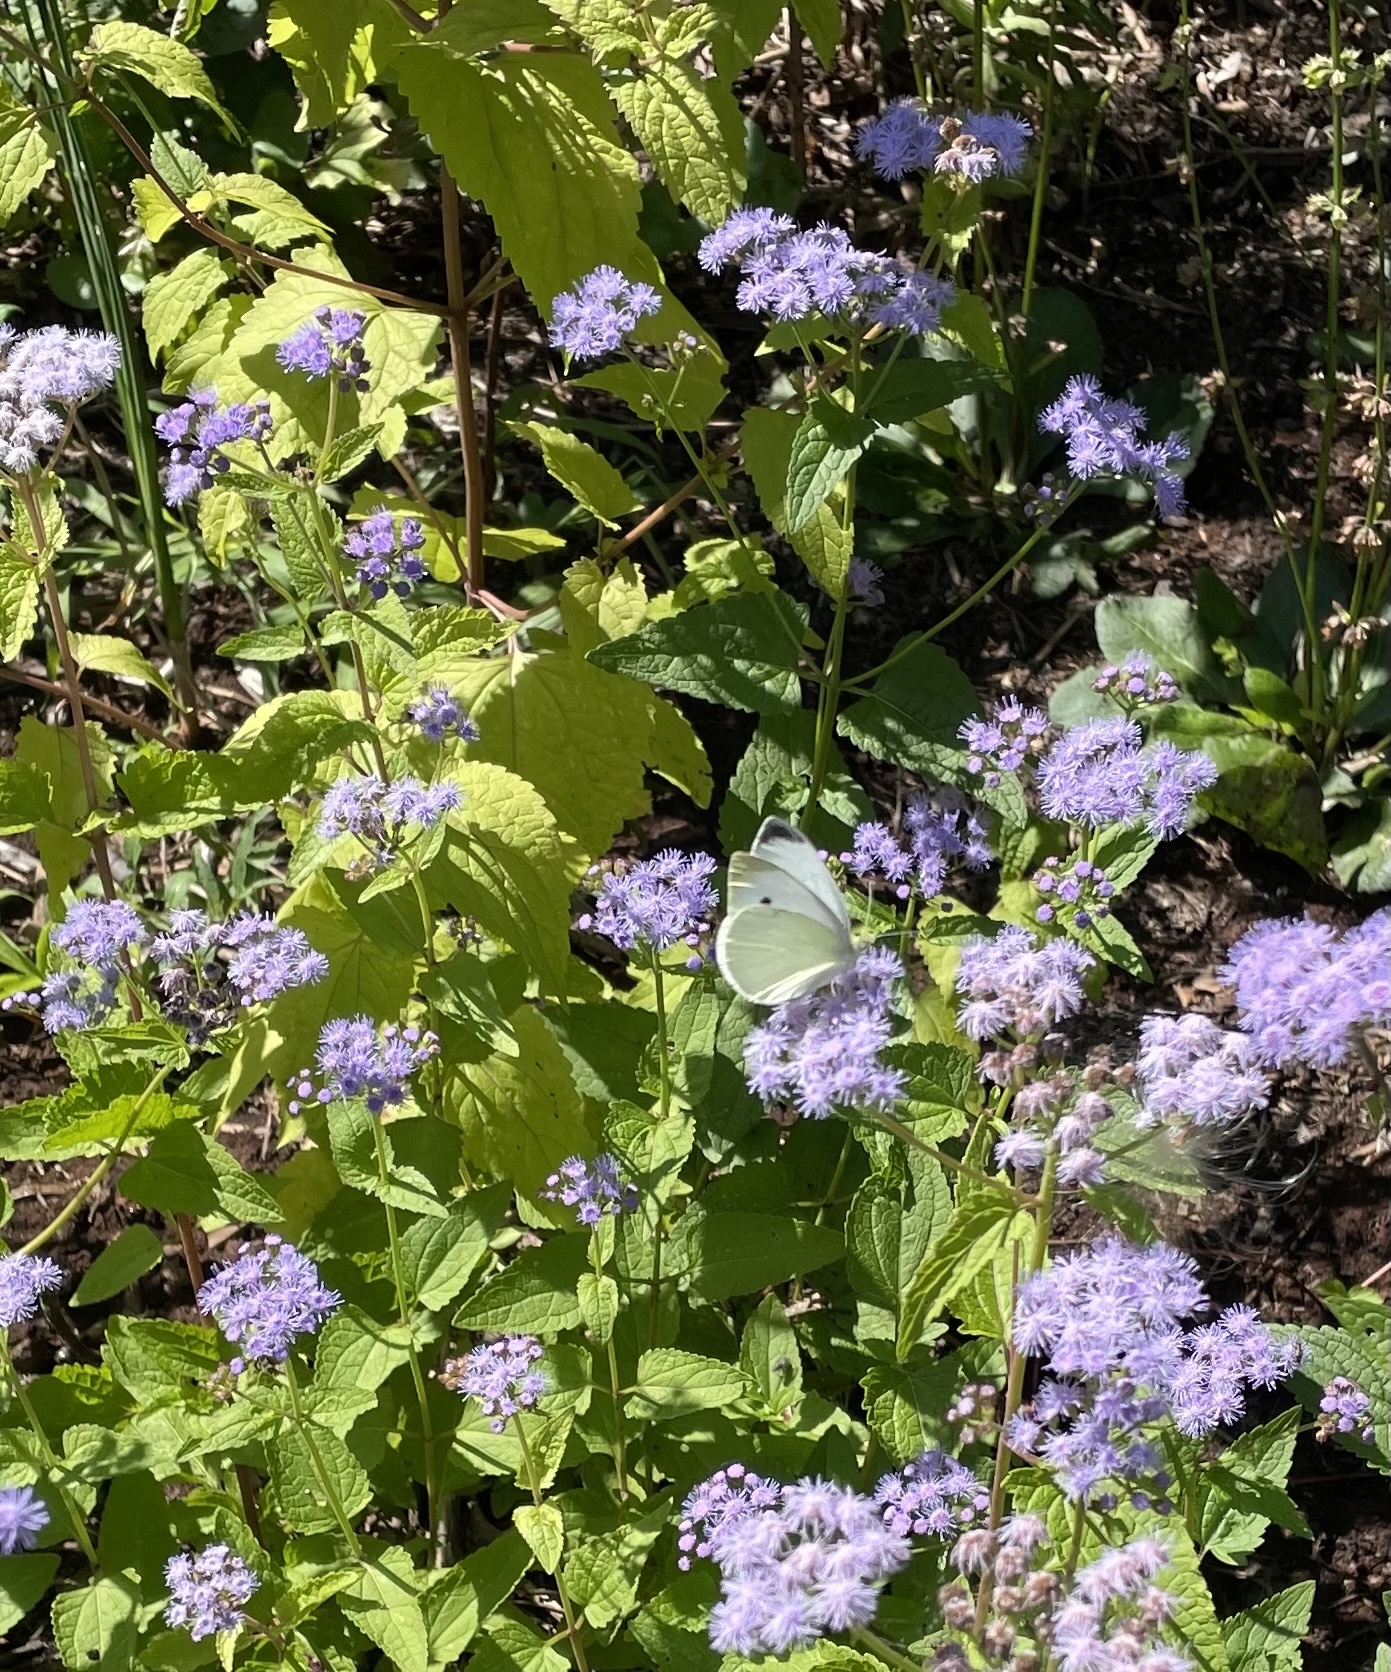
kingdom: Animalia
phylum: Arthropoda
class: Insecta
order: Lepidoptera
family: Pieridae
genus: Pieris
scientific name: Pieris rapae
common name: Small white
